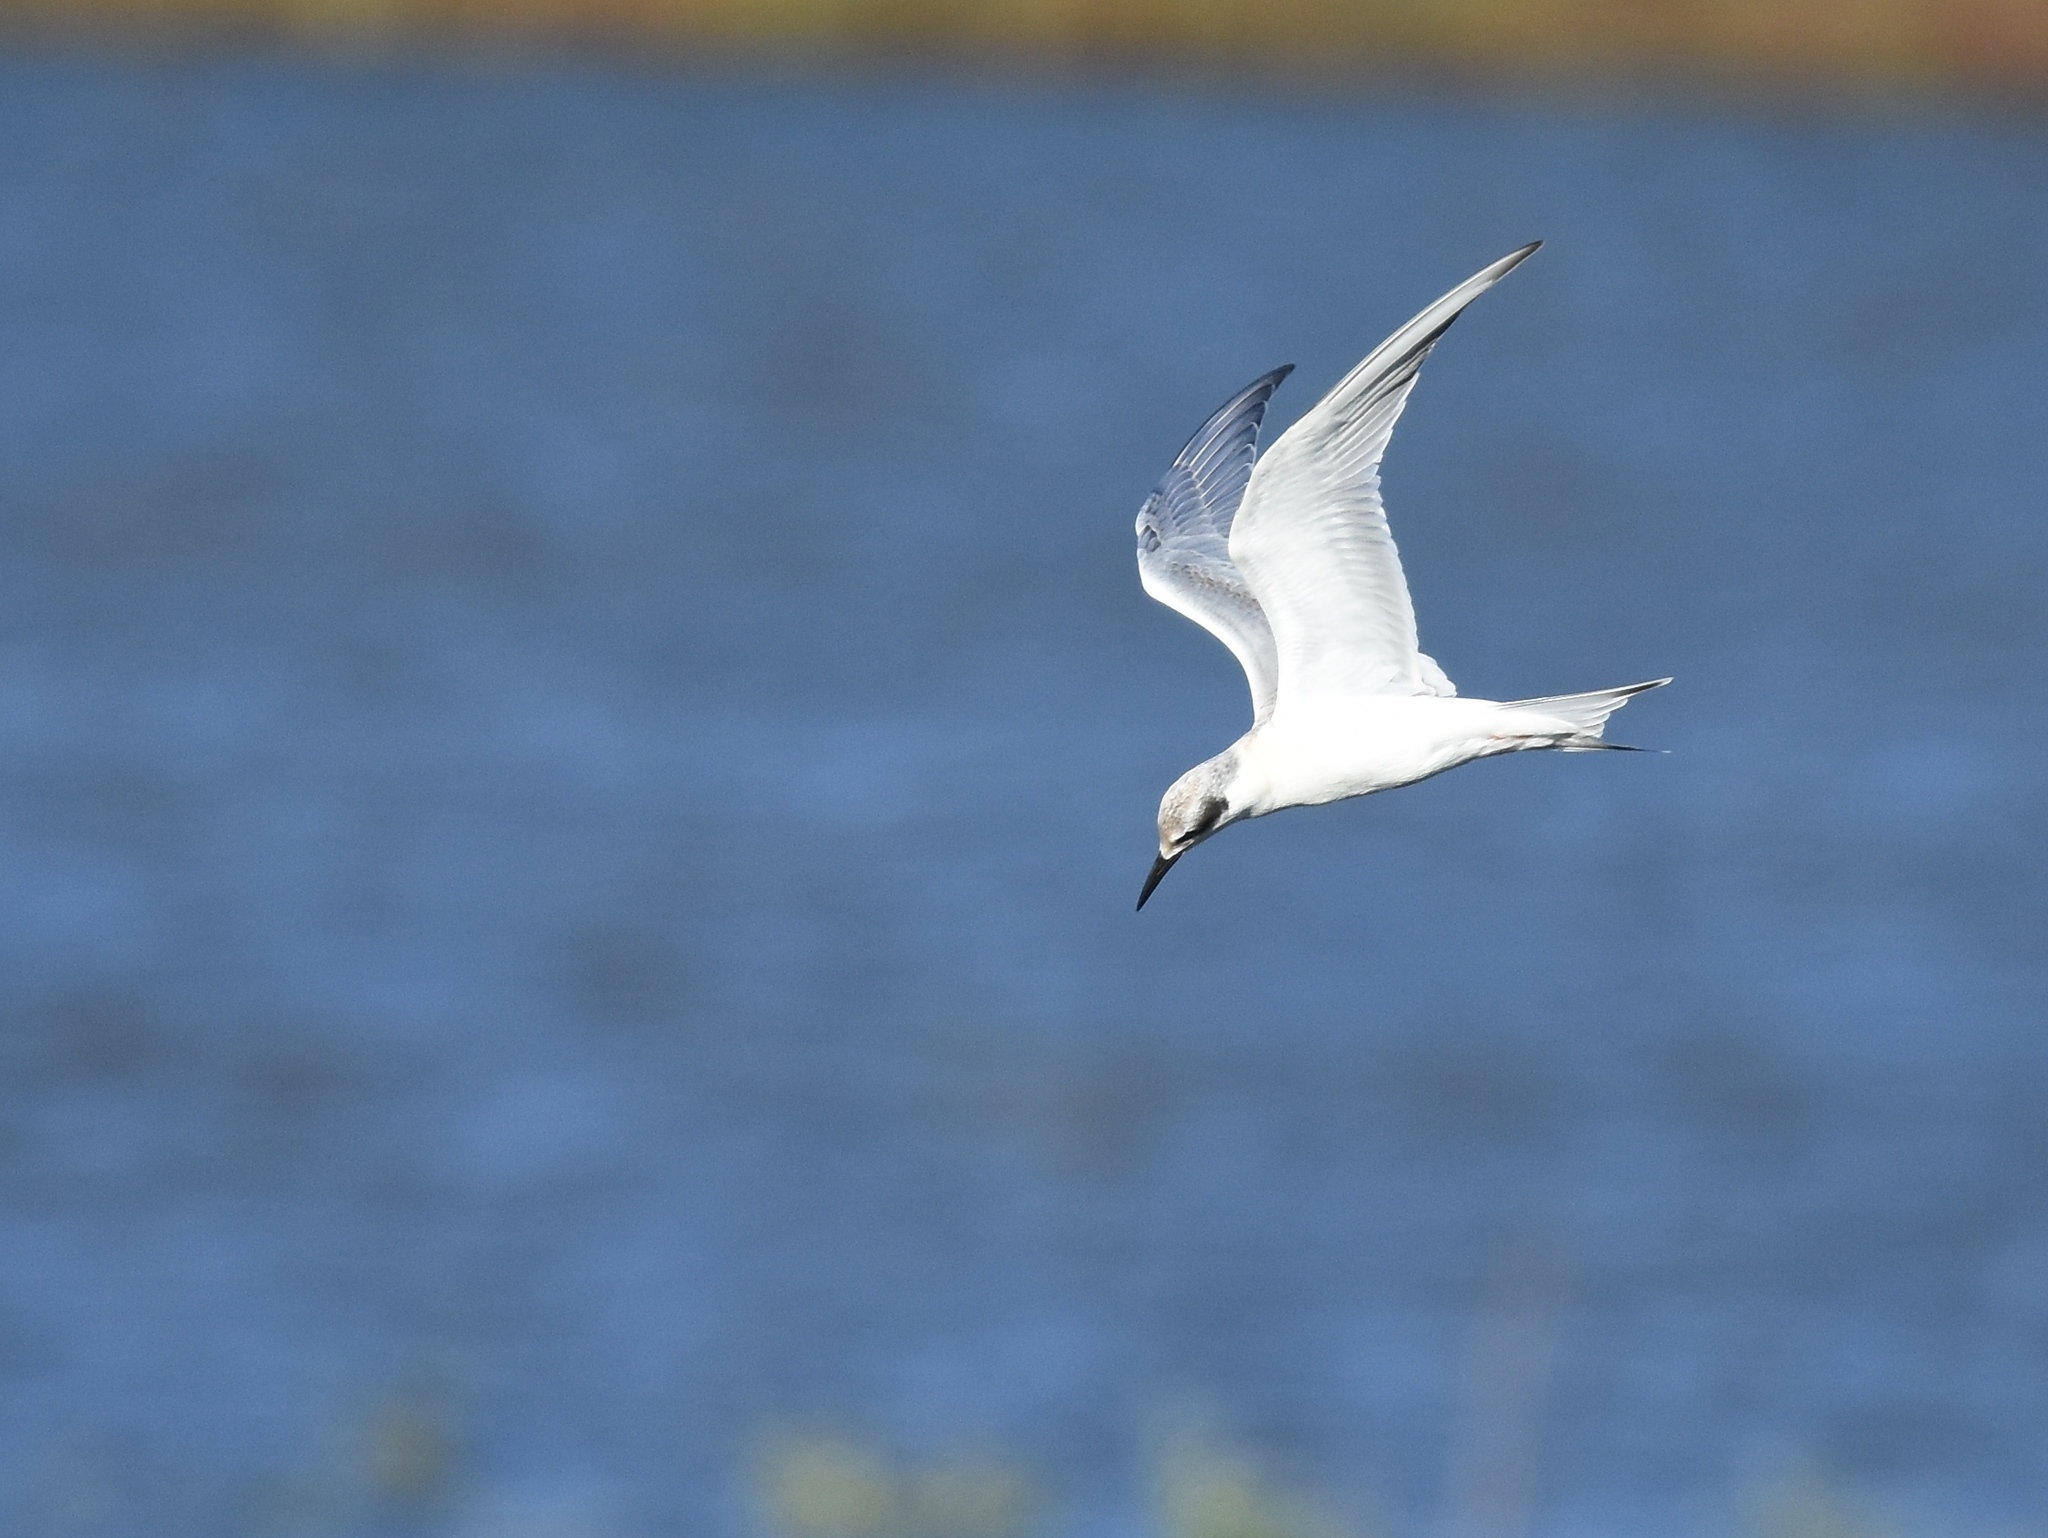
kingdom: Animalia
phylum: Chordata
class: Aves
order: Charadriiformes
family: Laridae
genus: Sterna
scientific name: Sterna forsteri
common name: Forster's tern
